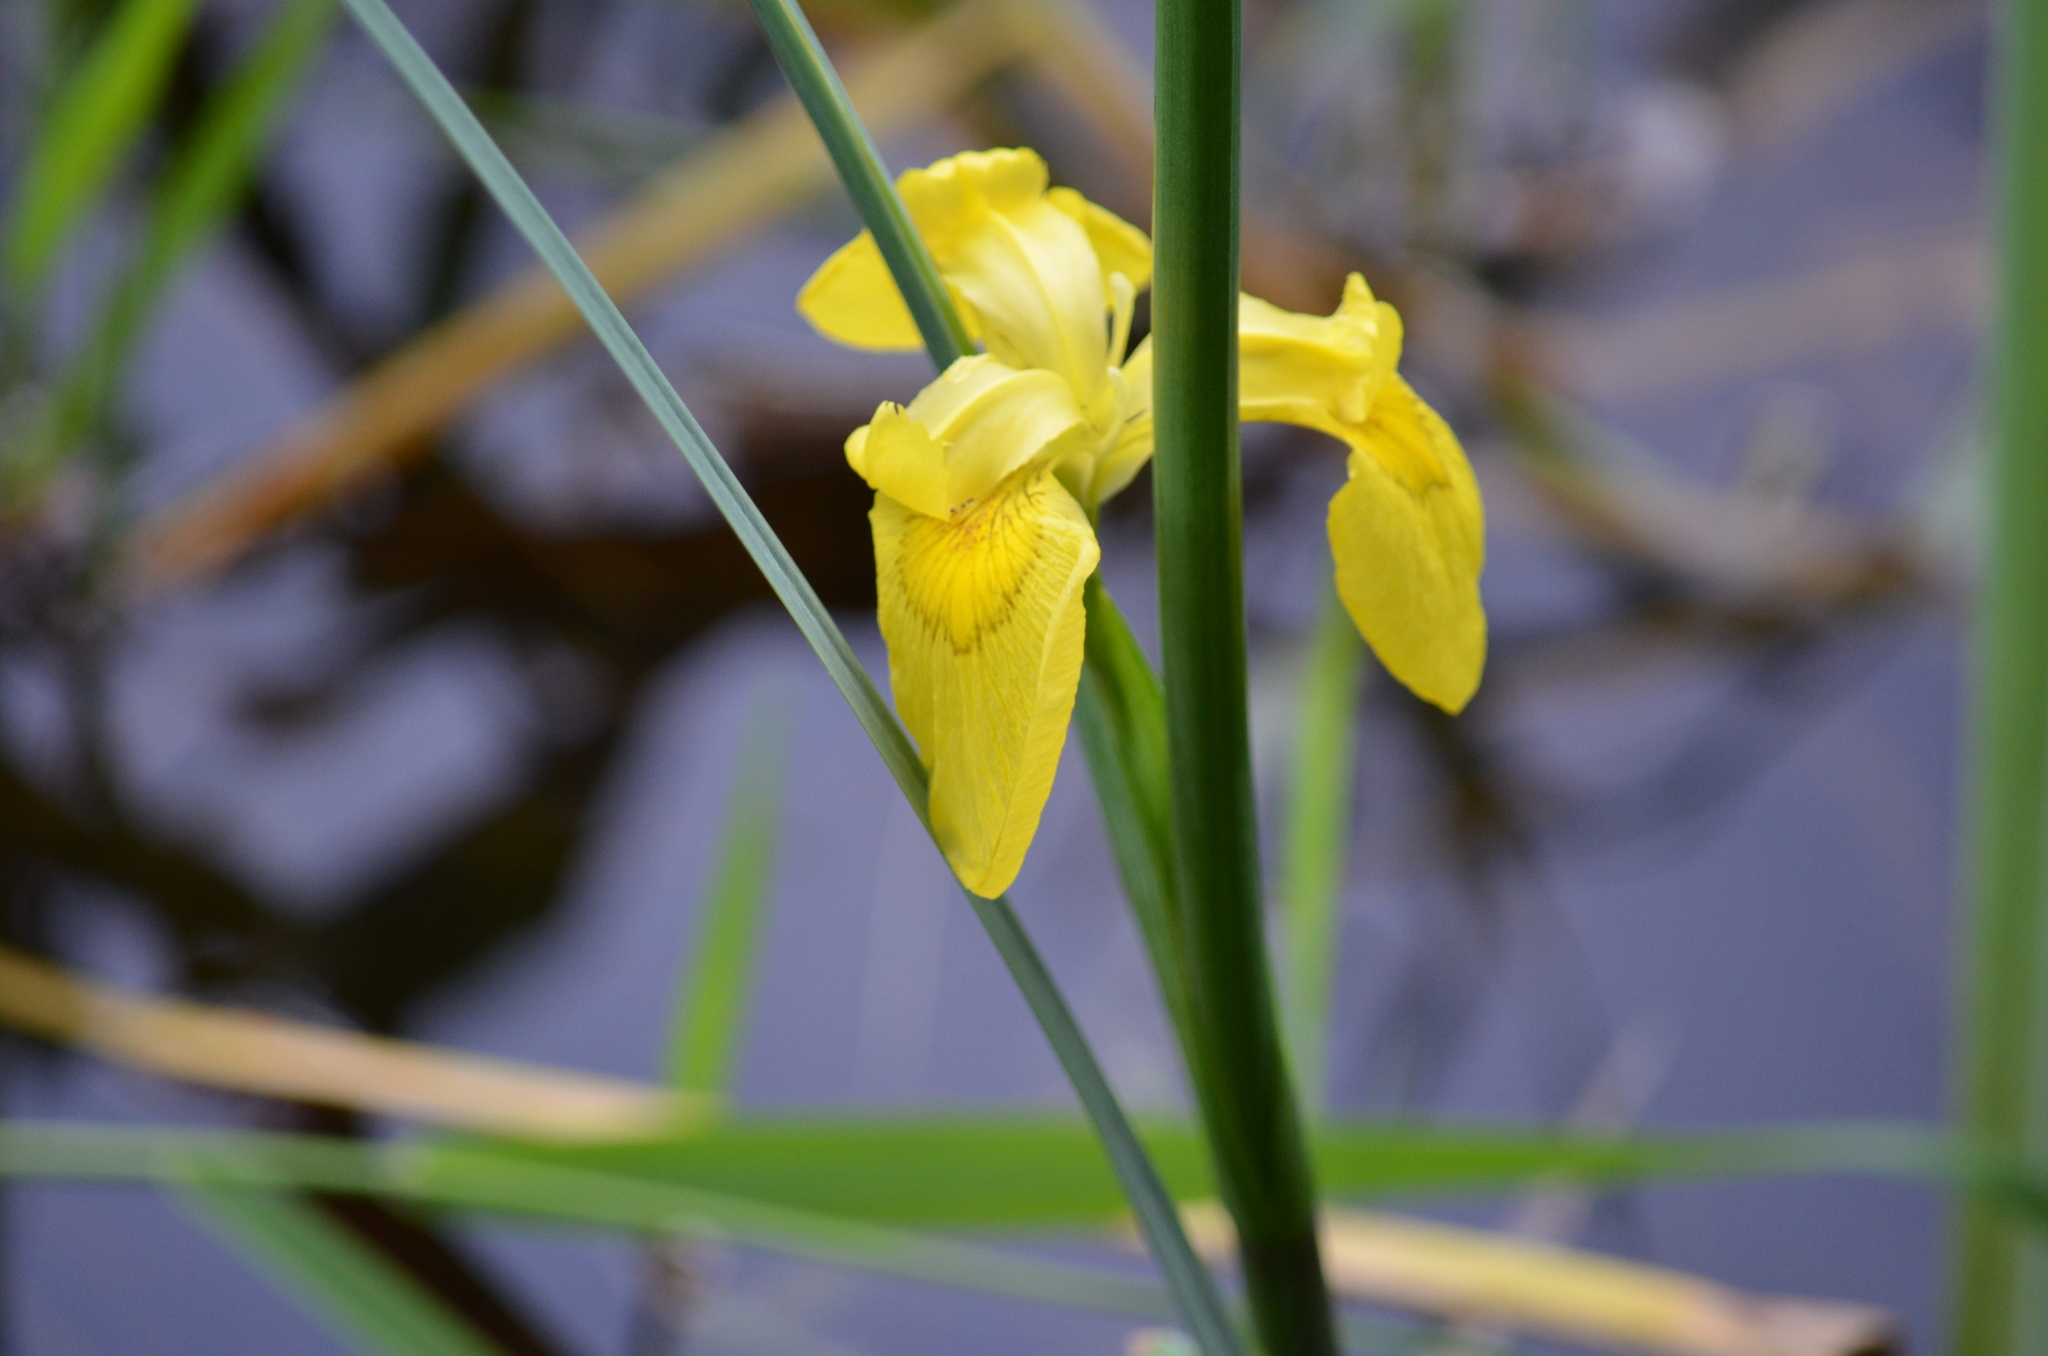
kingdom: Plantae
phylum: Tracheophyta
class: Liliopsida
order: Asparagales
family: Iridaceae
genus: Iris
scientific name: Iris pseudacorus
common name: Yellow flag
